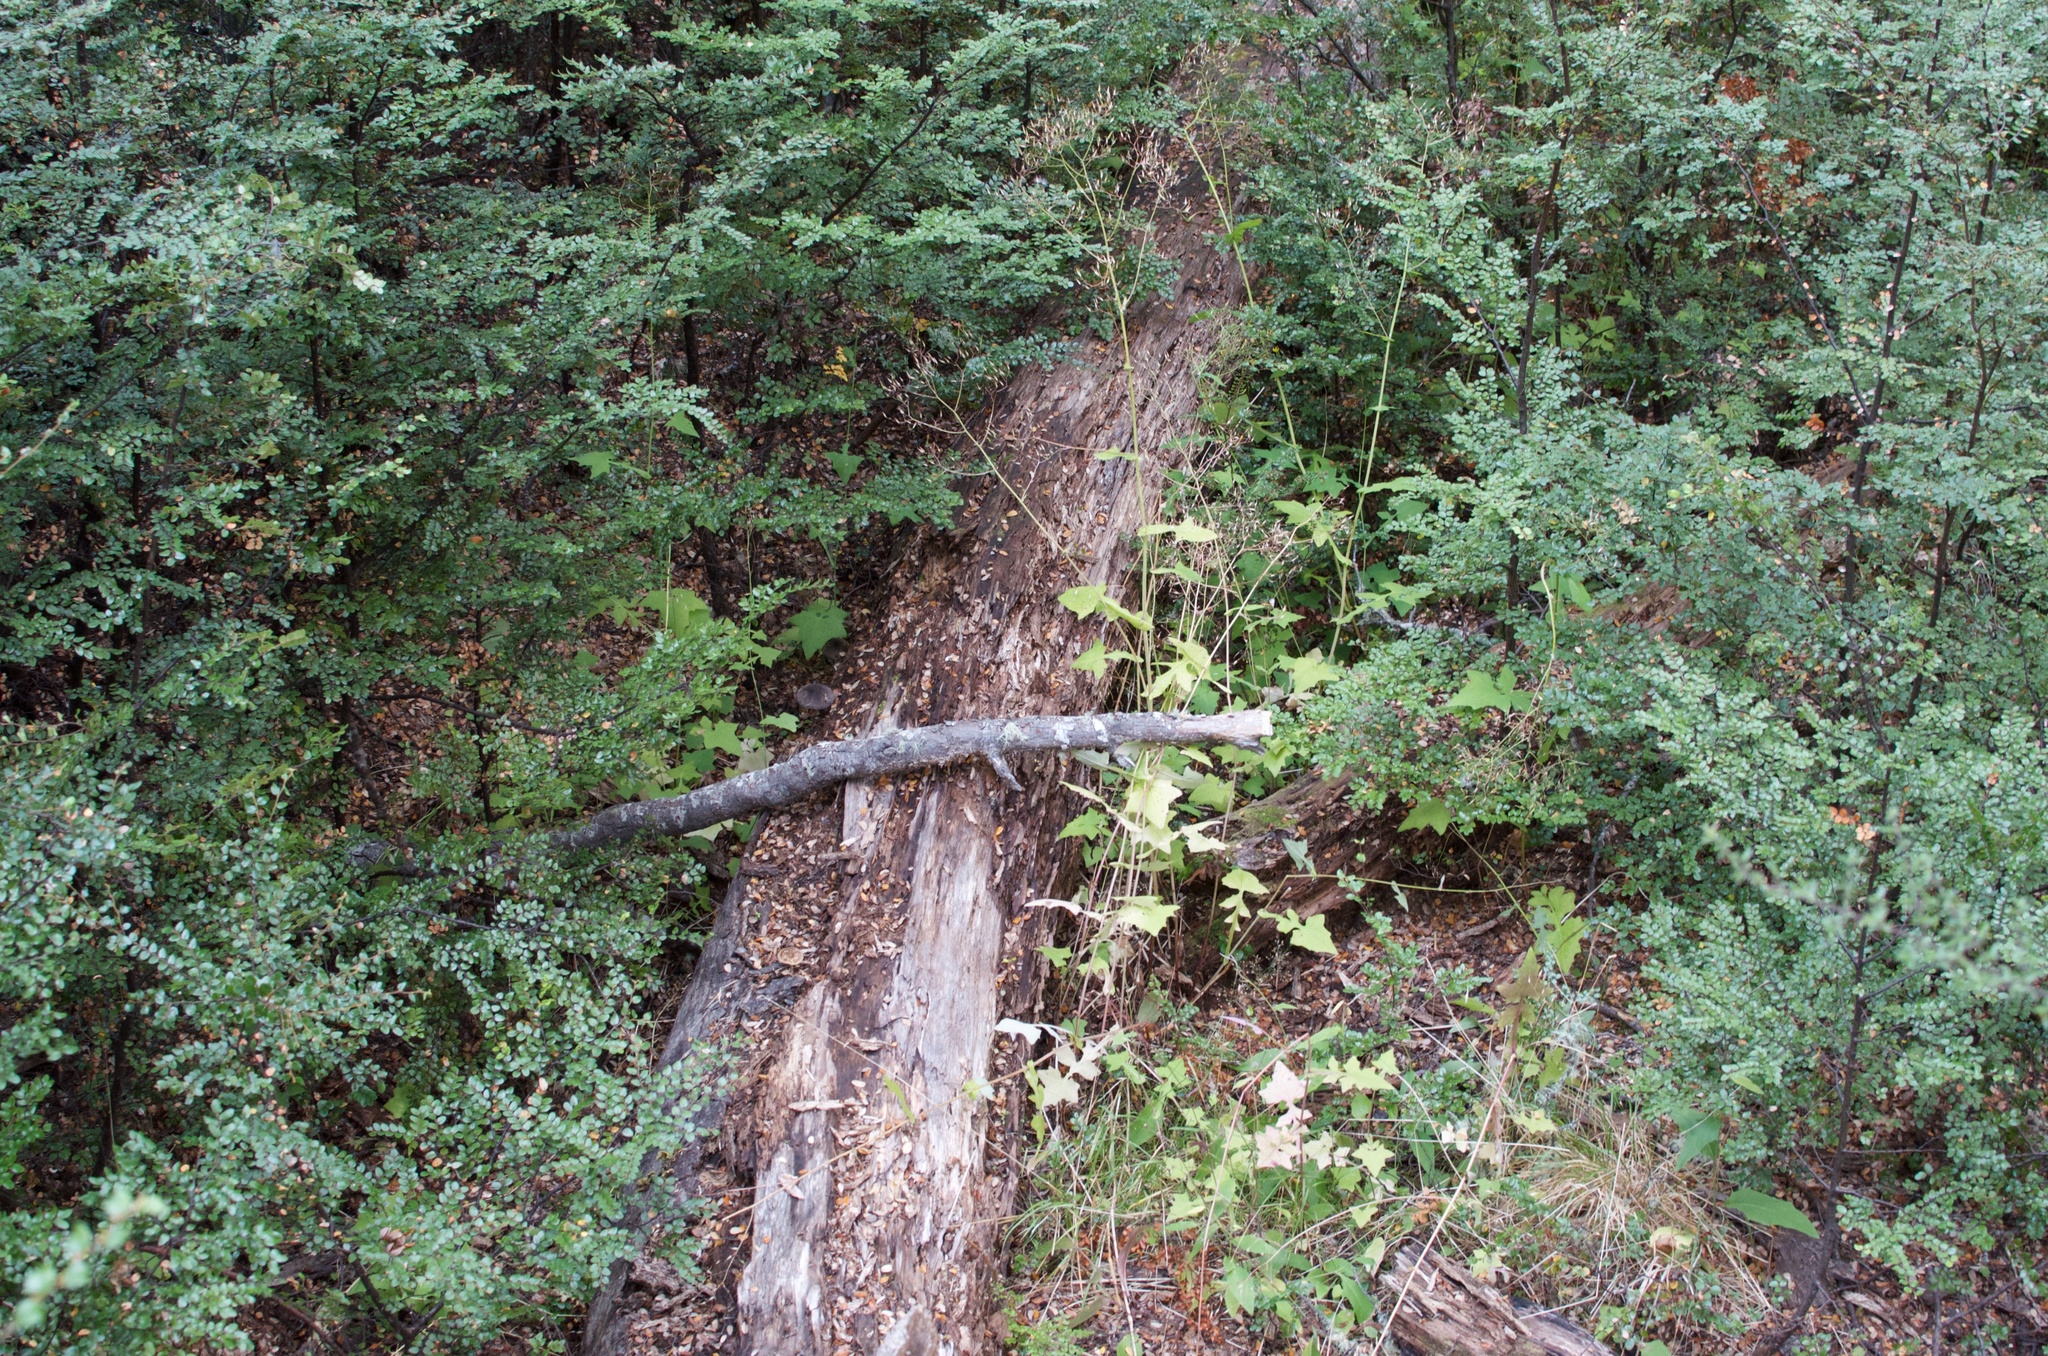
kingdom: Plantae
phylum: Tracheophyta
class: Magnoliopsida
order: Asterales
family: Asteraceae
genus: Mycelis
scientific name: Mycelis muralis
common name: Wall lettuce
